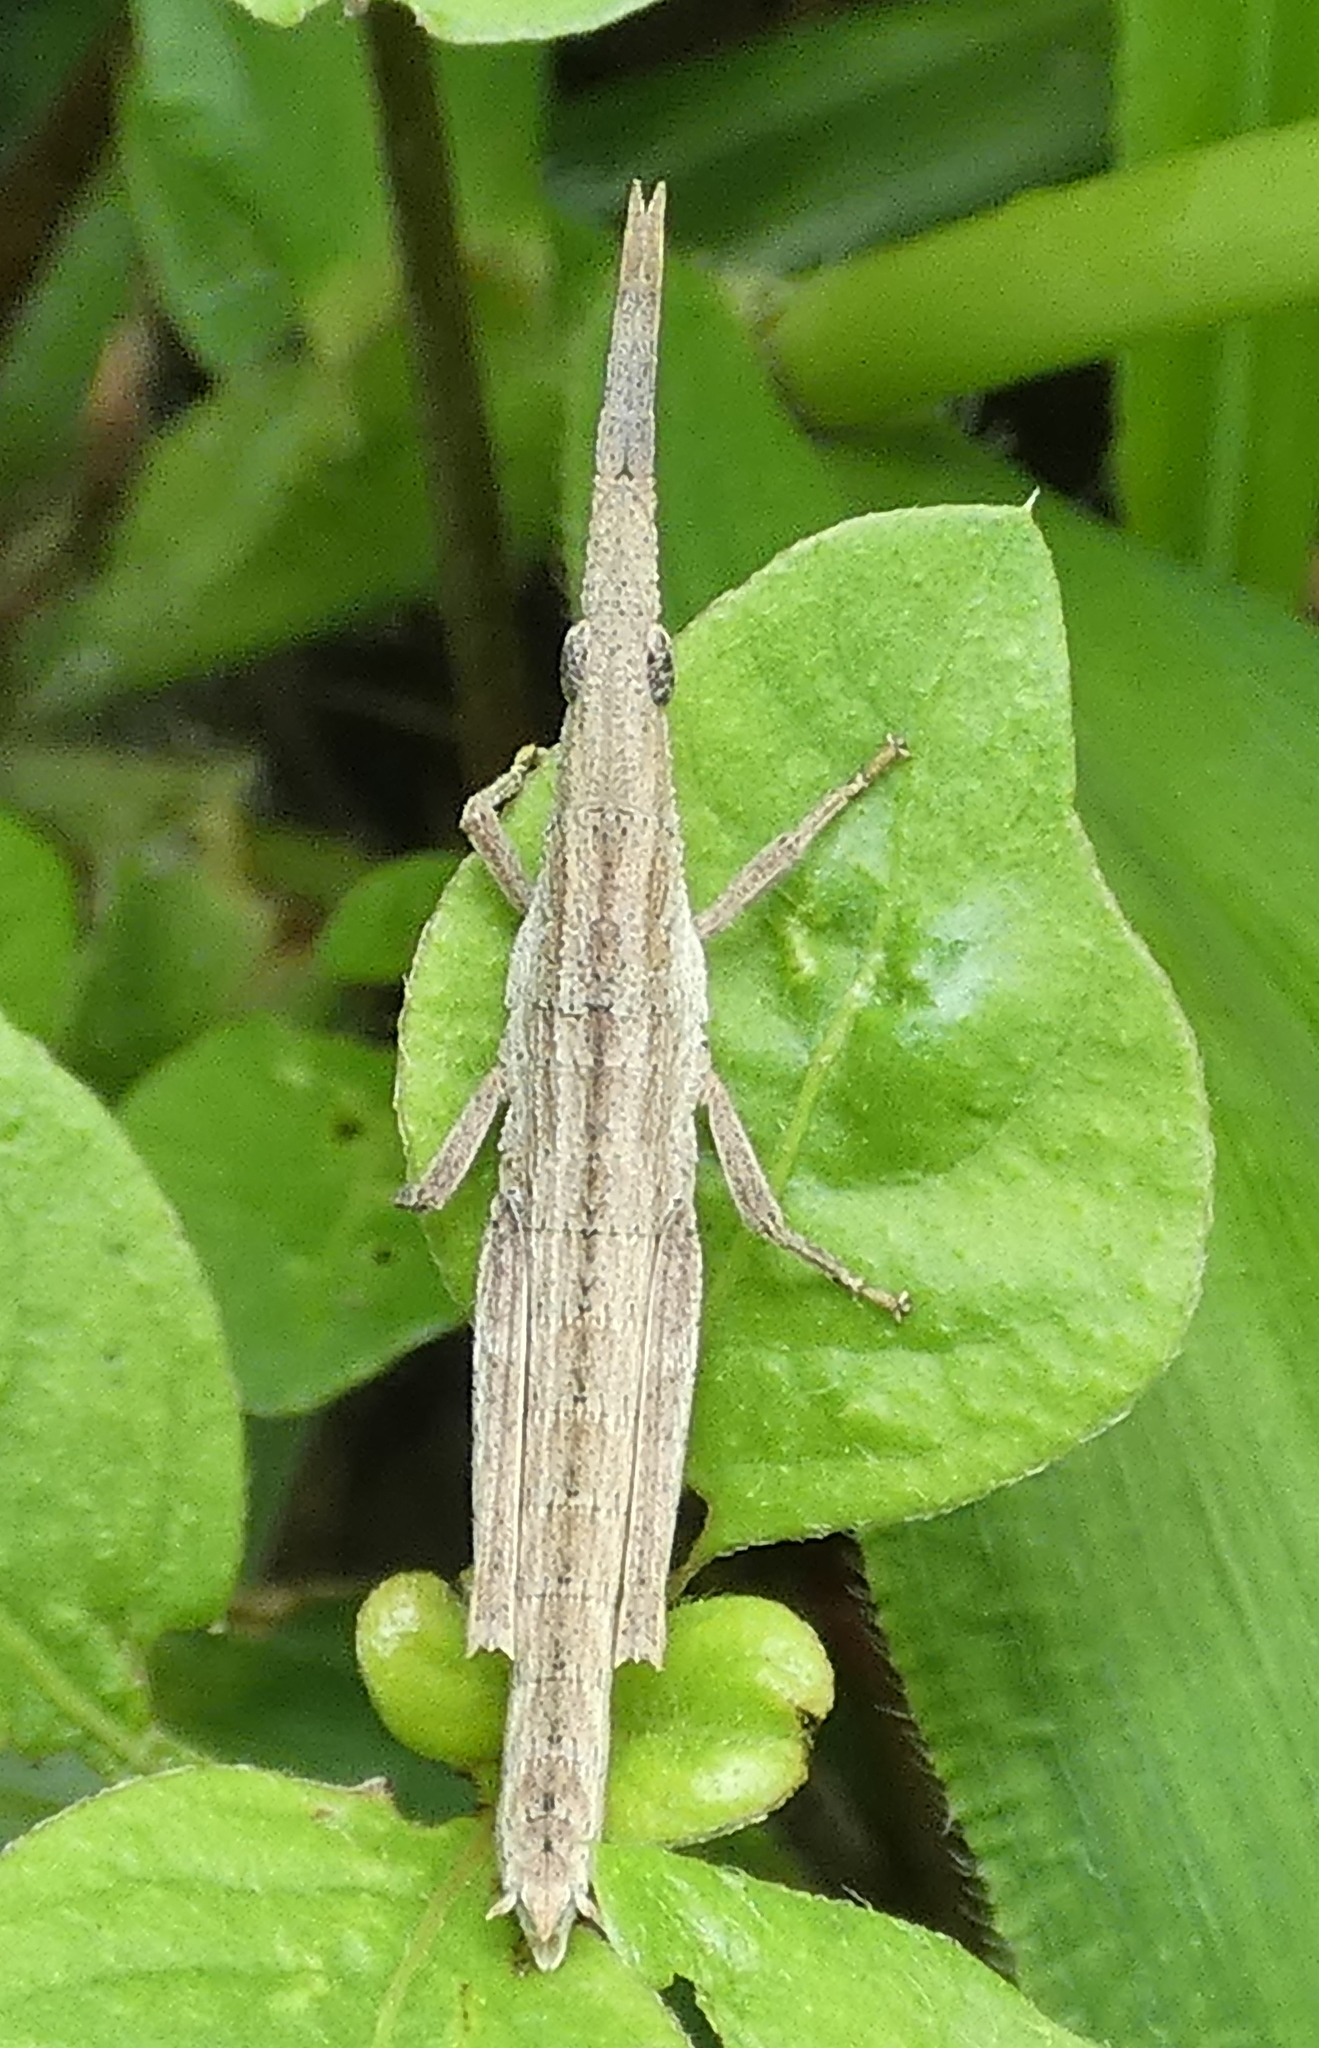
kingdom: Animalia
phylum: Arthropoda
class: Insecta
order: Orthoptera
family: Pyrgomorphidae
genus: Algete
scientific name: Algete brunneri
